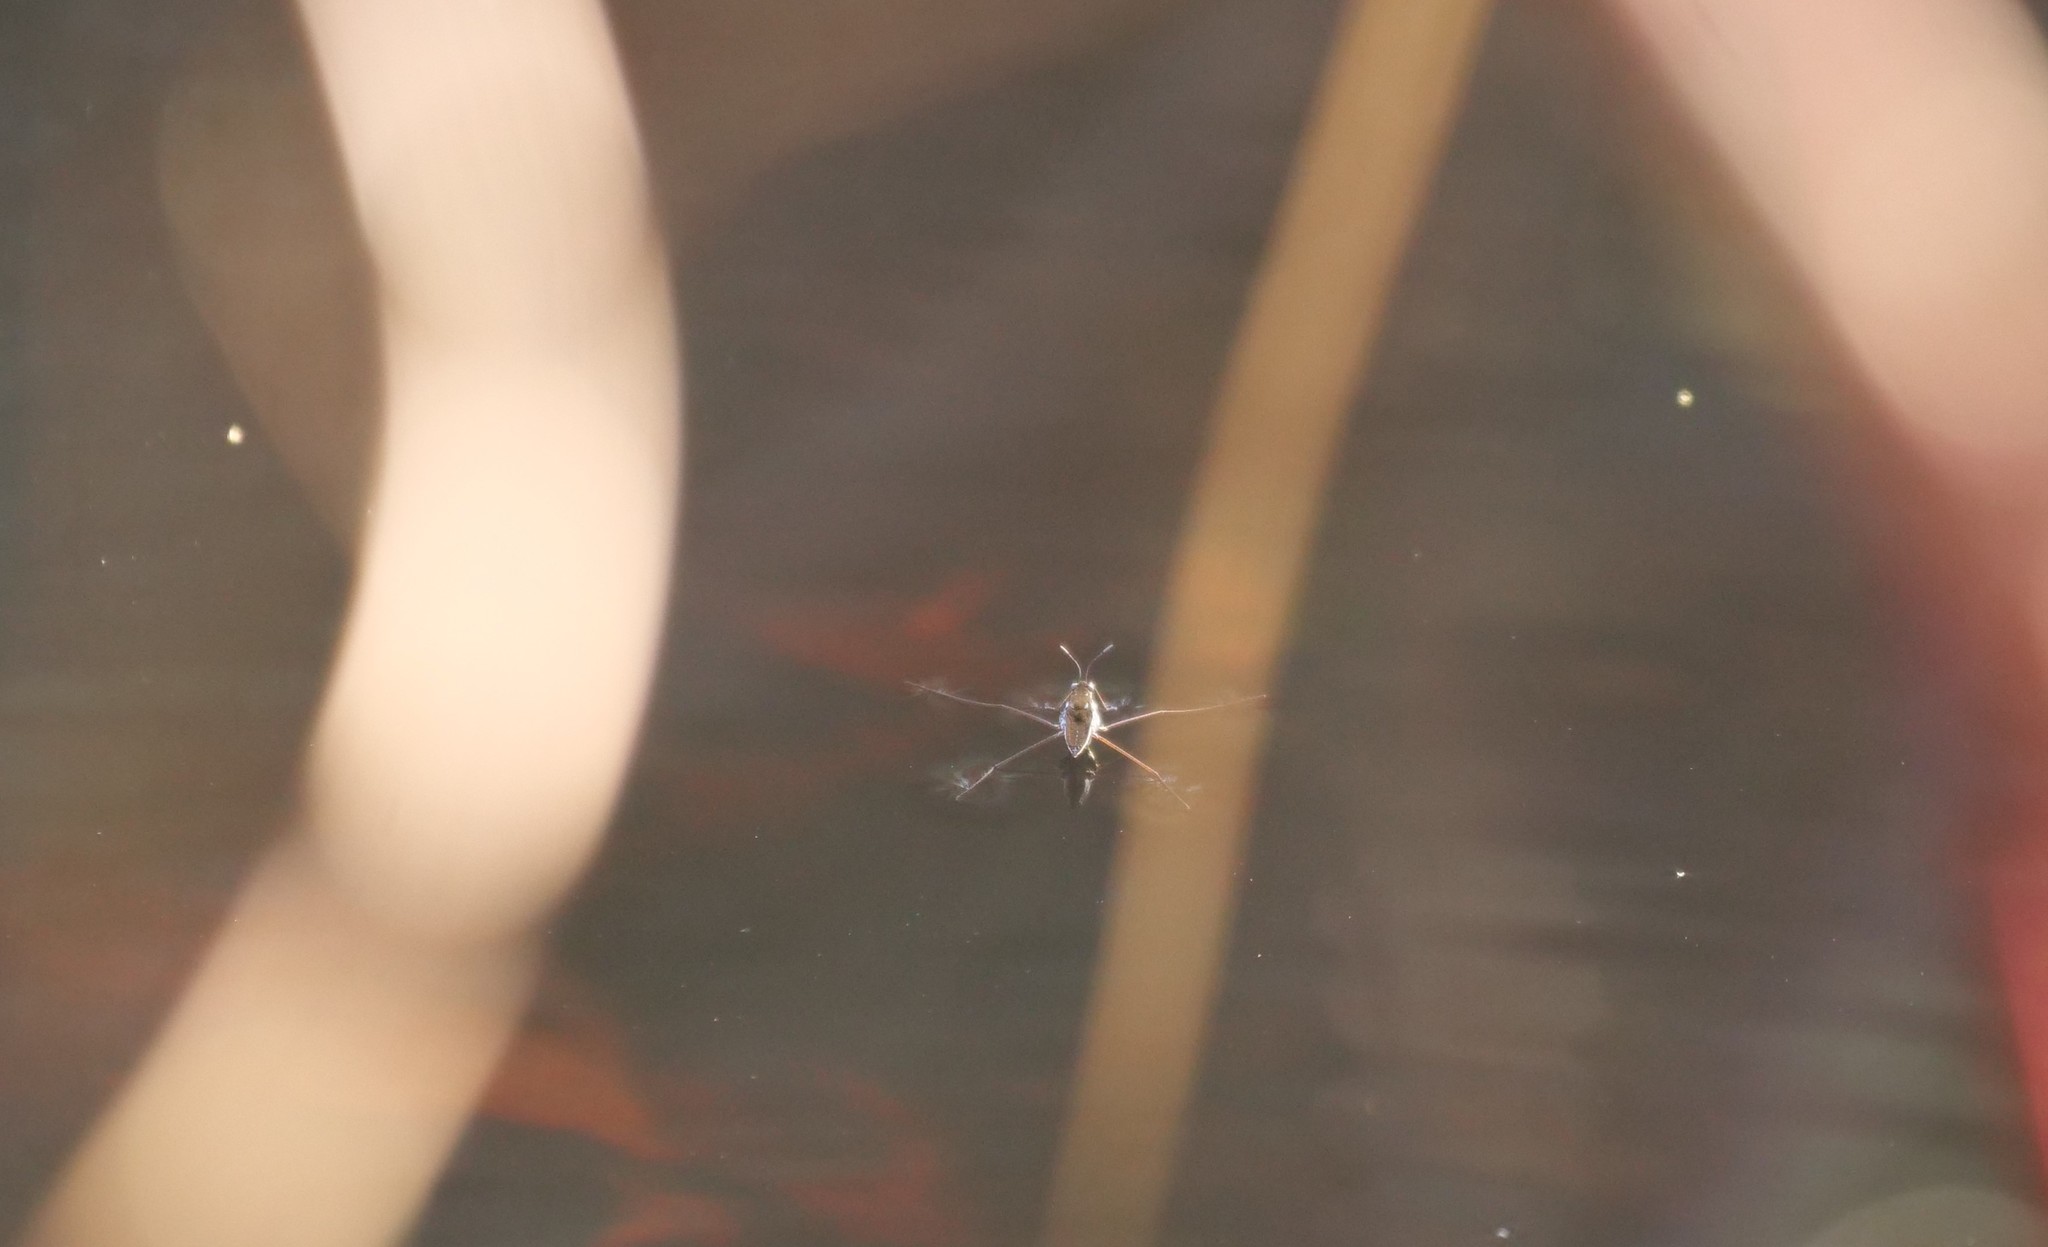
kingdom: Animalia
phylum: Arthropoda
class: Insecta
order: Hemiptera
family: Gerridae
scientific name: Gerridae
